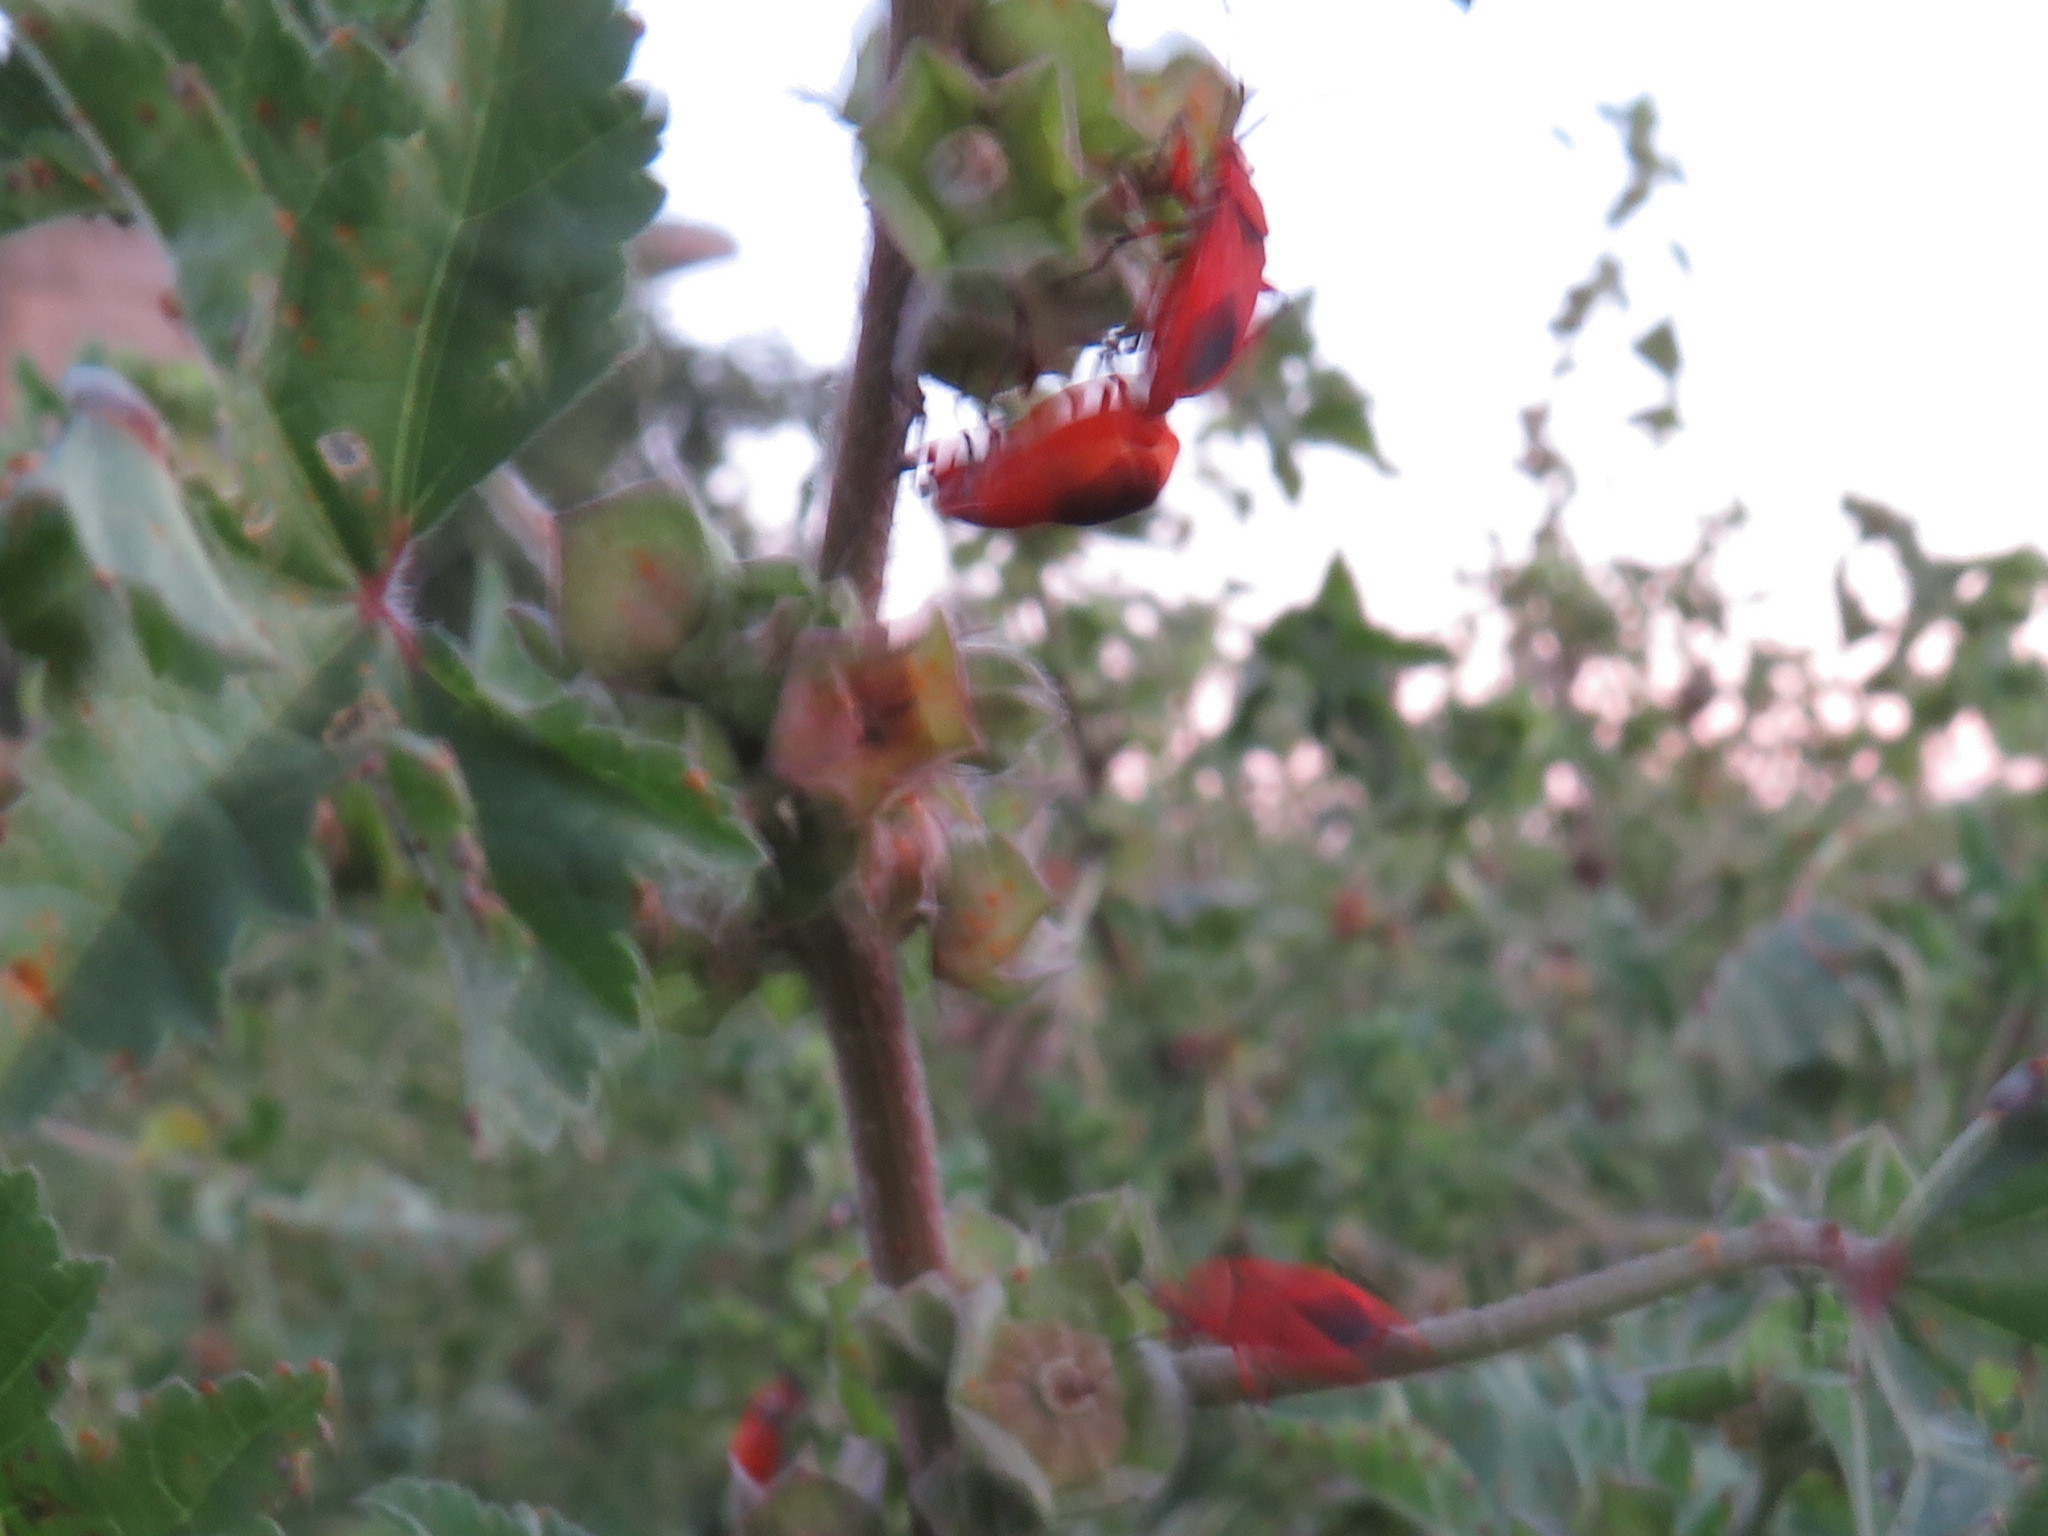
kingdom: Animalia
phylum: Arthropoda
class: Insecta
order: Hemiptera
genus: Cenaeus
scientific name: Cenaeus
